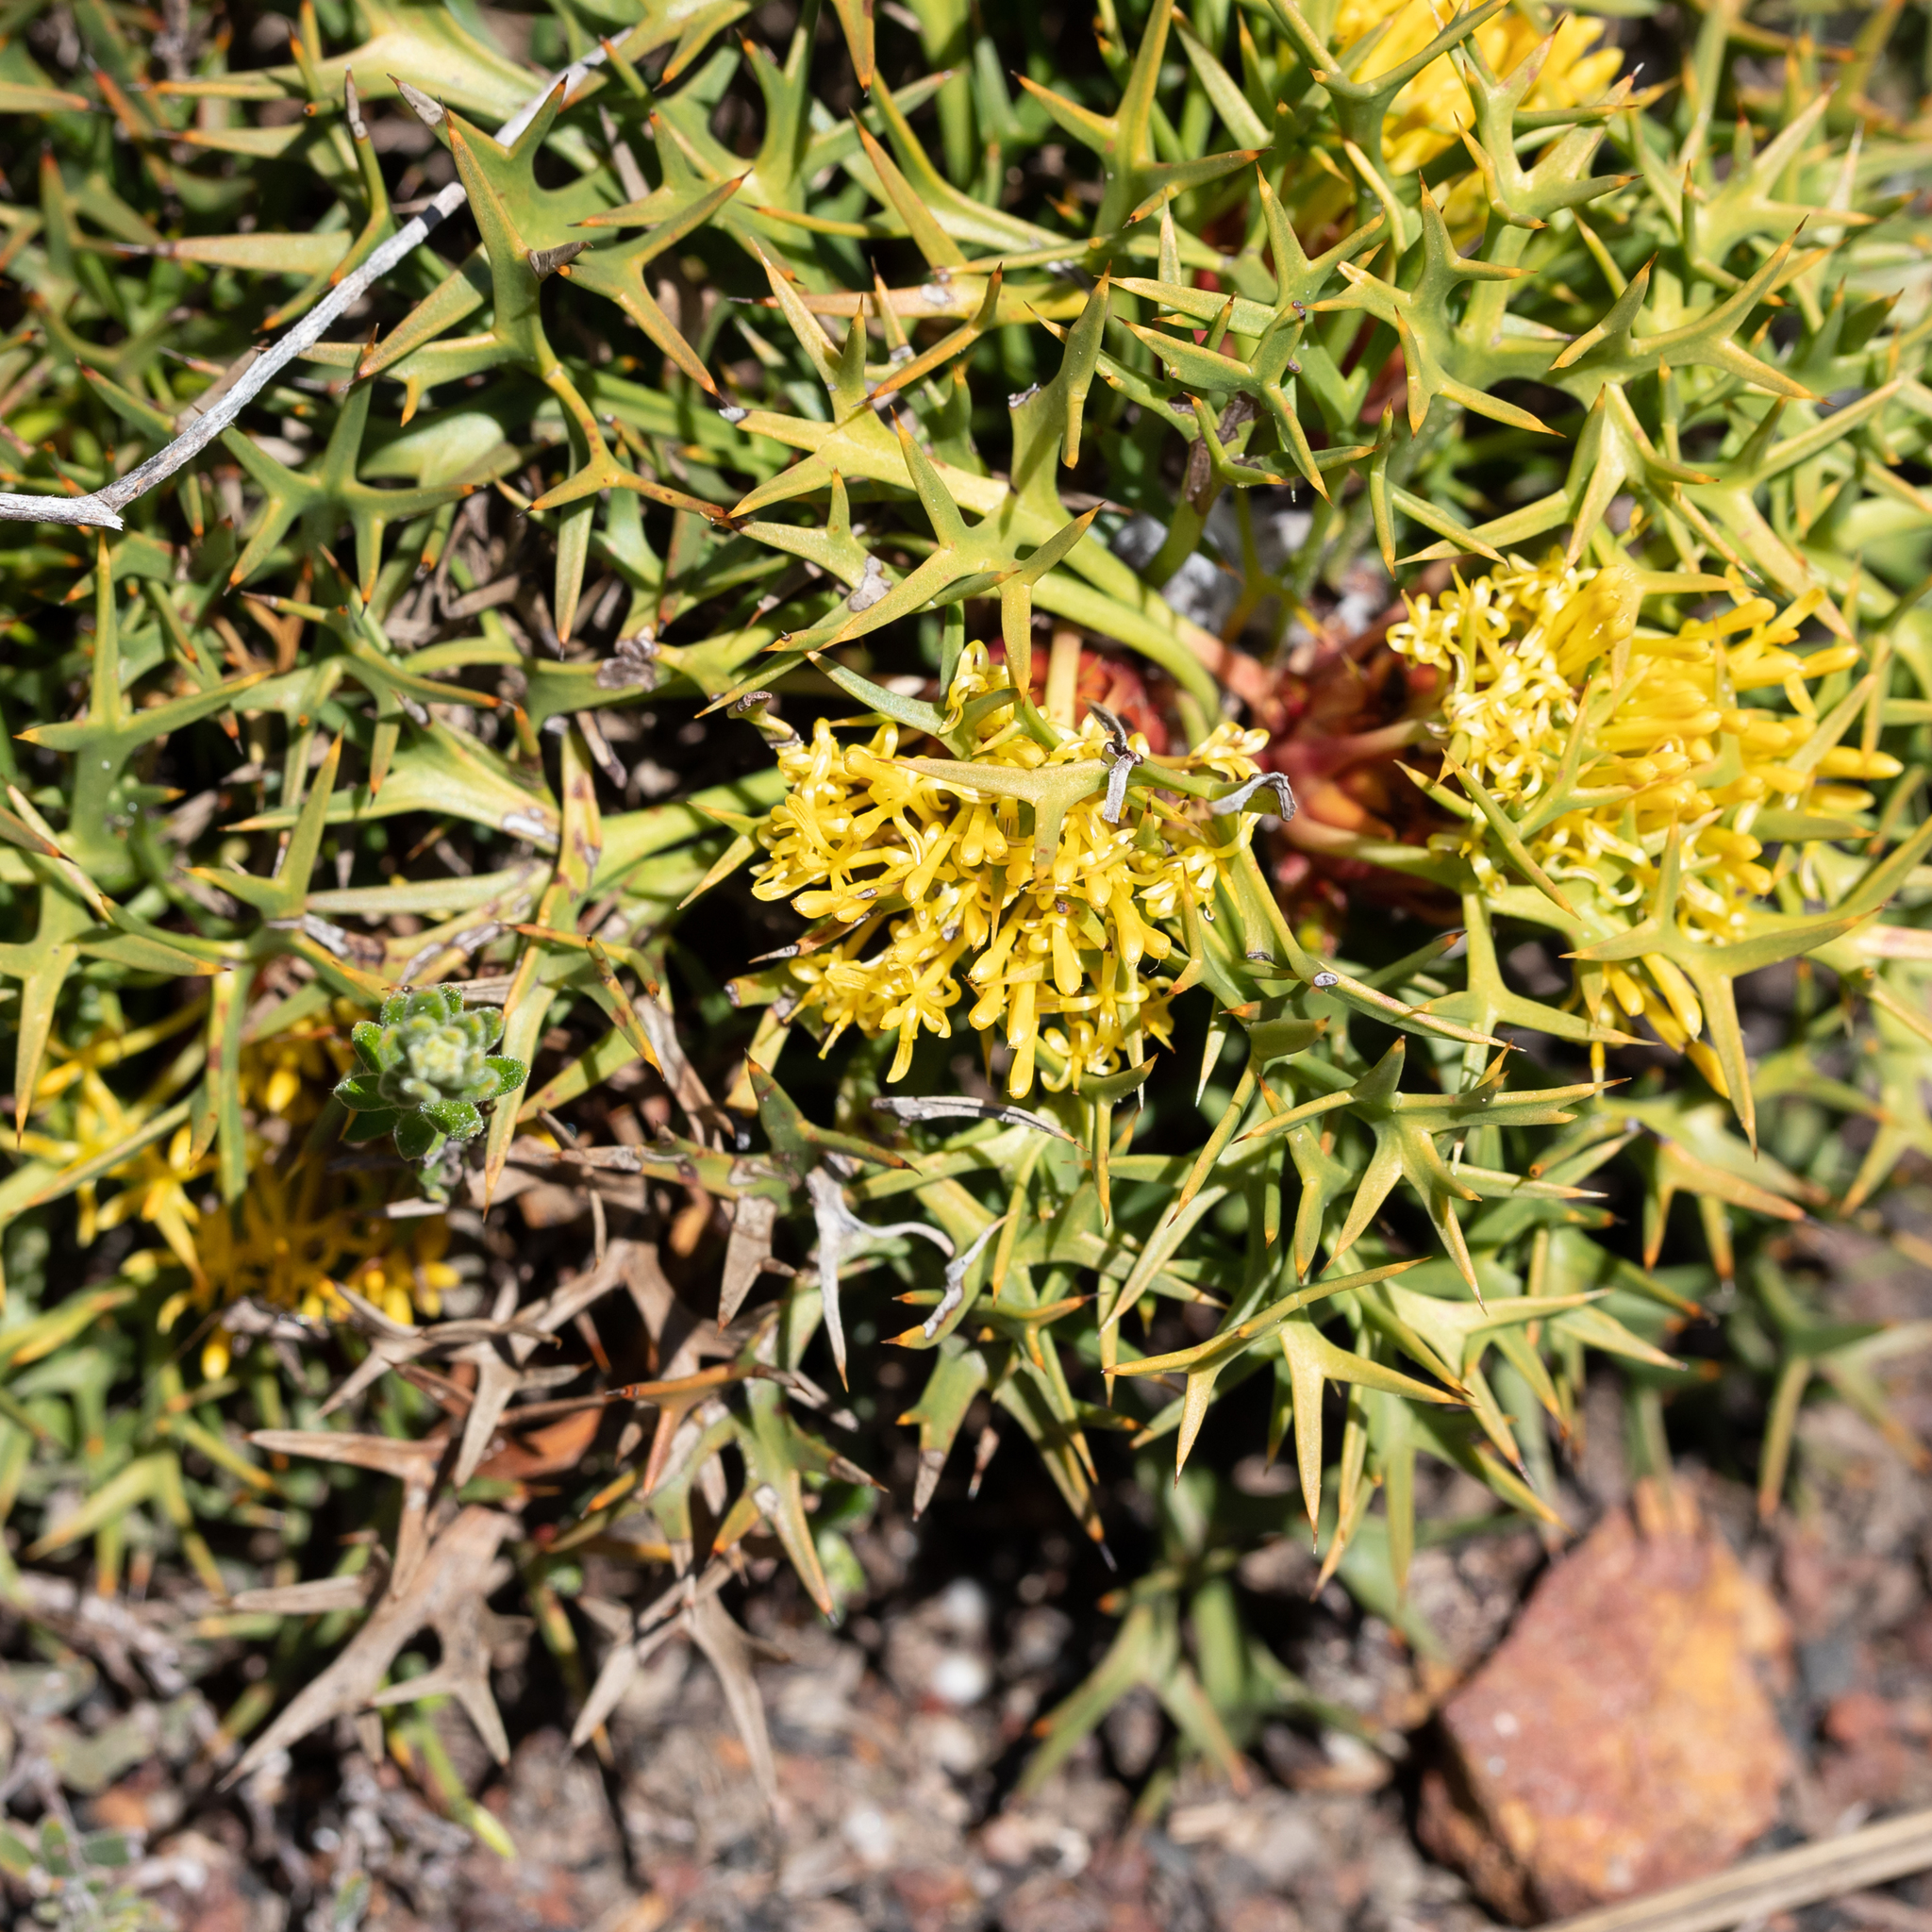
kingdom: Plantae
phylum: Tracheophyta
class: Magnoliopsida
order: Proteales
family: Proteaceae
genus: Isopogon
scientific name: Isopogon ceratophyllus
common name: Horny cone-bush
